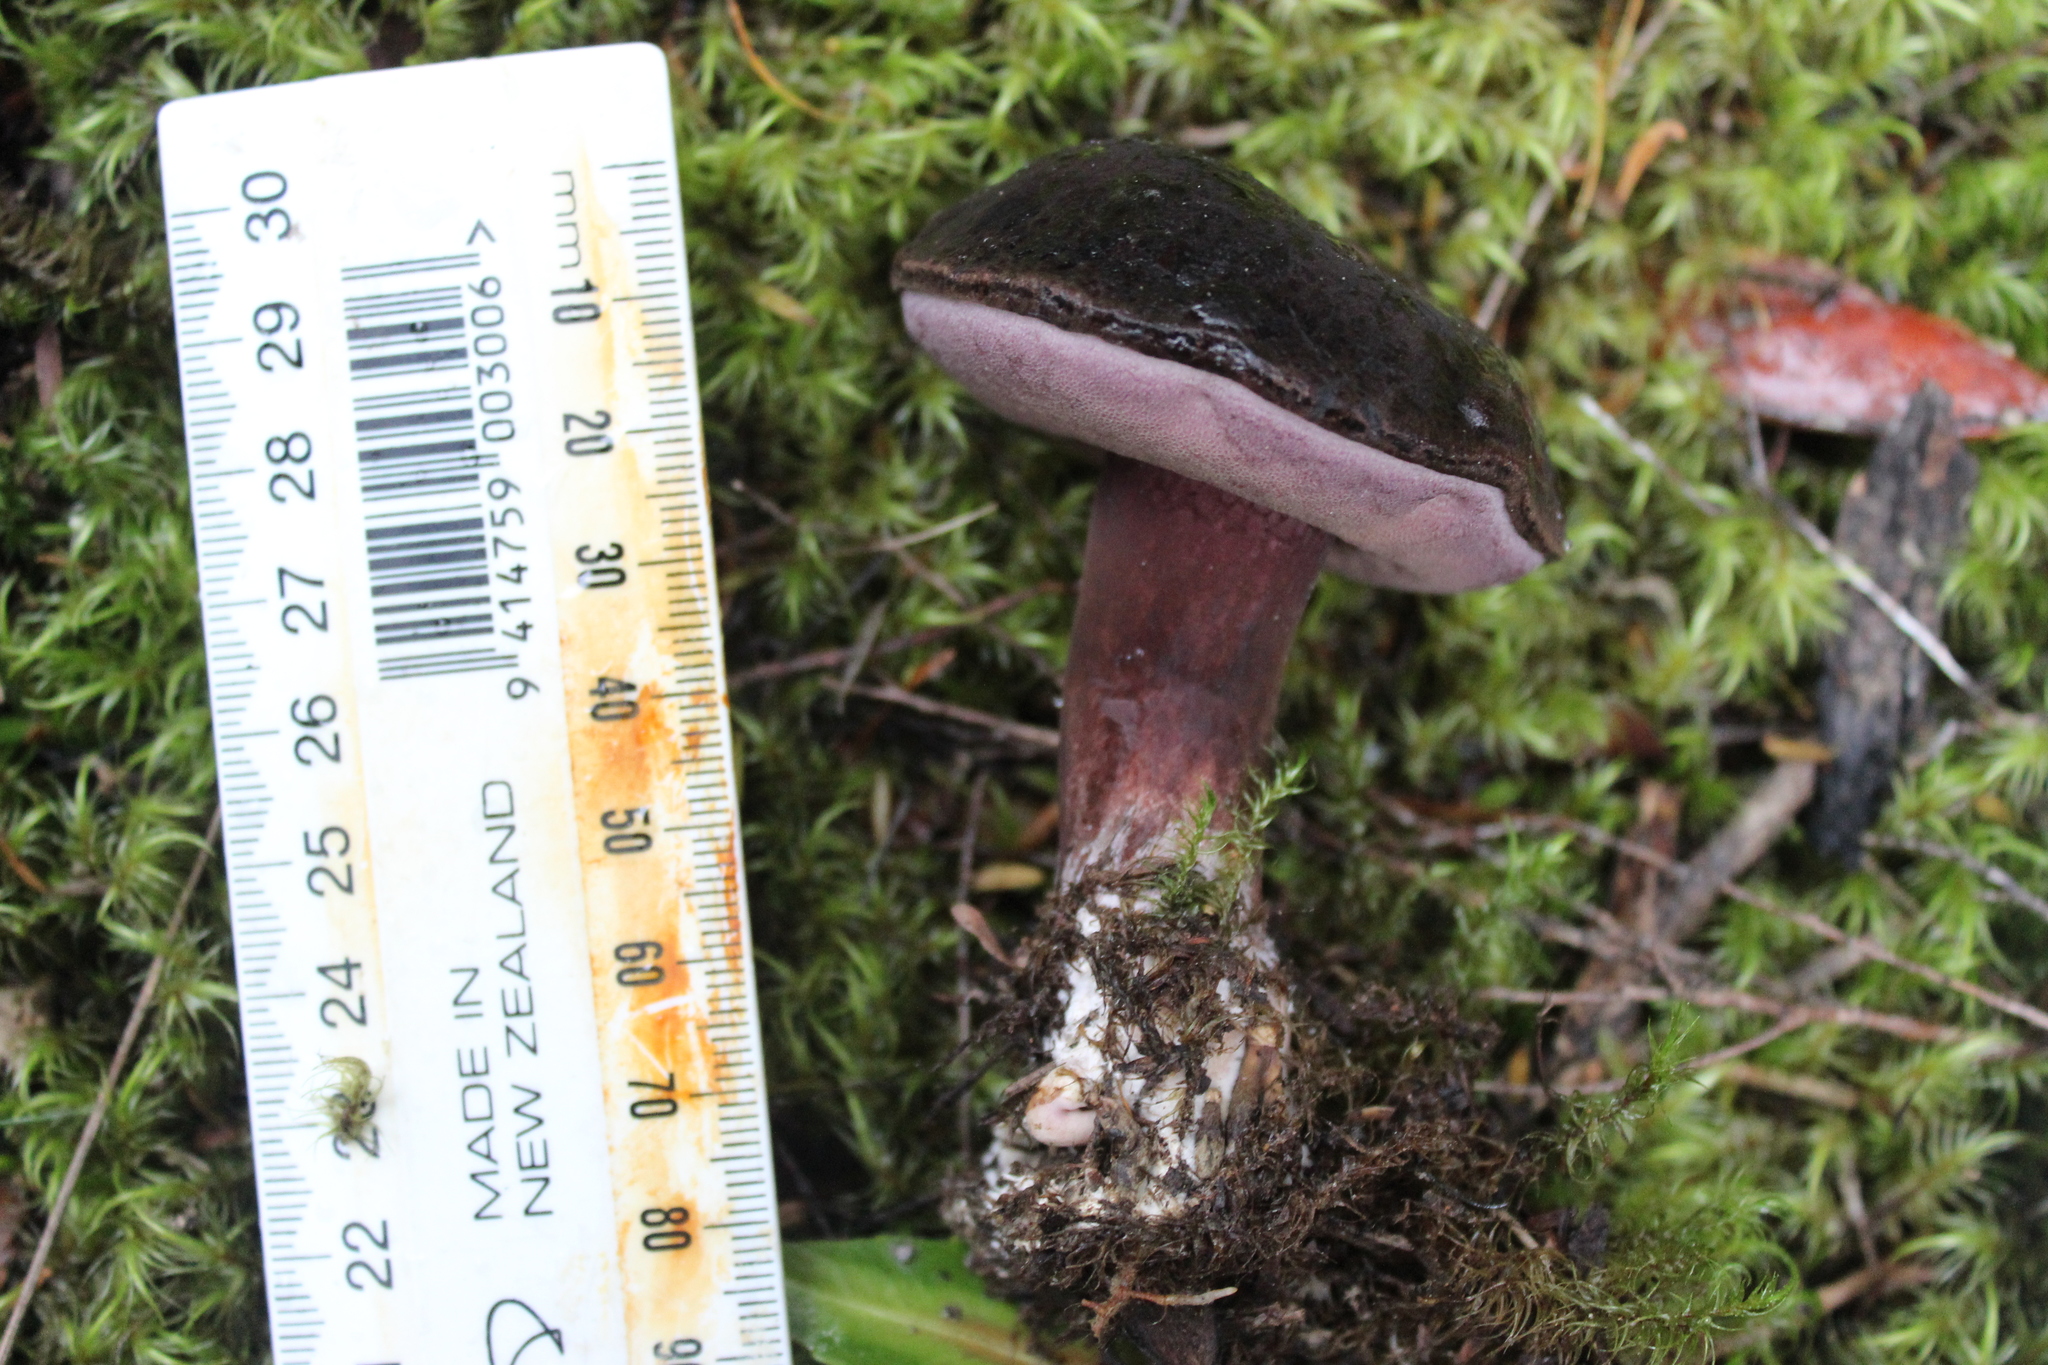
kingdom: Fungi
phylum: Basidiomycota
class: Agaricomycetes
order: Boletales
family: Boletaceae
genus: Porphyrellus
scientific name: Porphyrellus formosus
